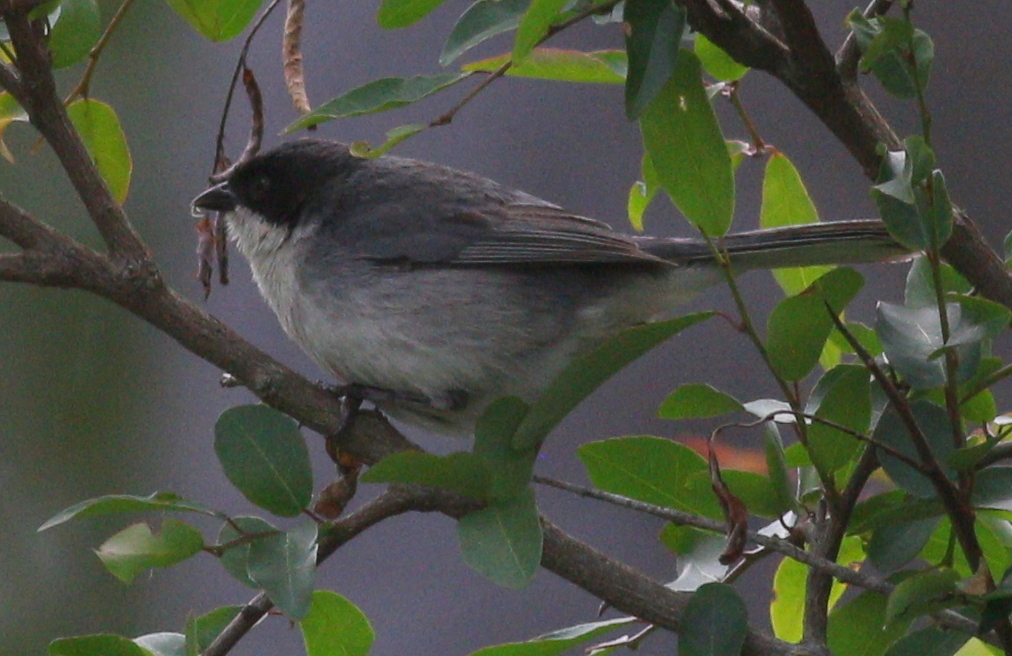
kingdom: Animalia
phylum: Chordata
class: Aves
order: Passeriformes
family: Thraupidae
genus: Microspingus
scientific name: Microspingus melanoleucus
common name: Black-capped warbling-finch
